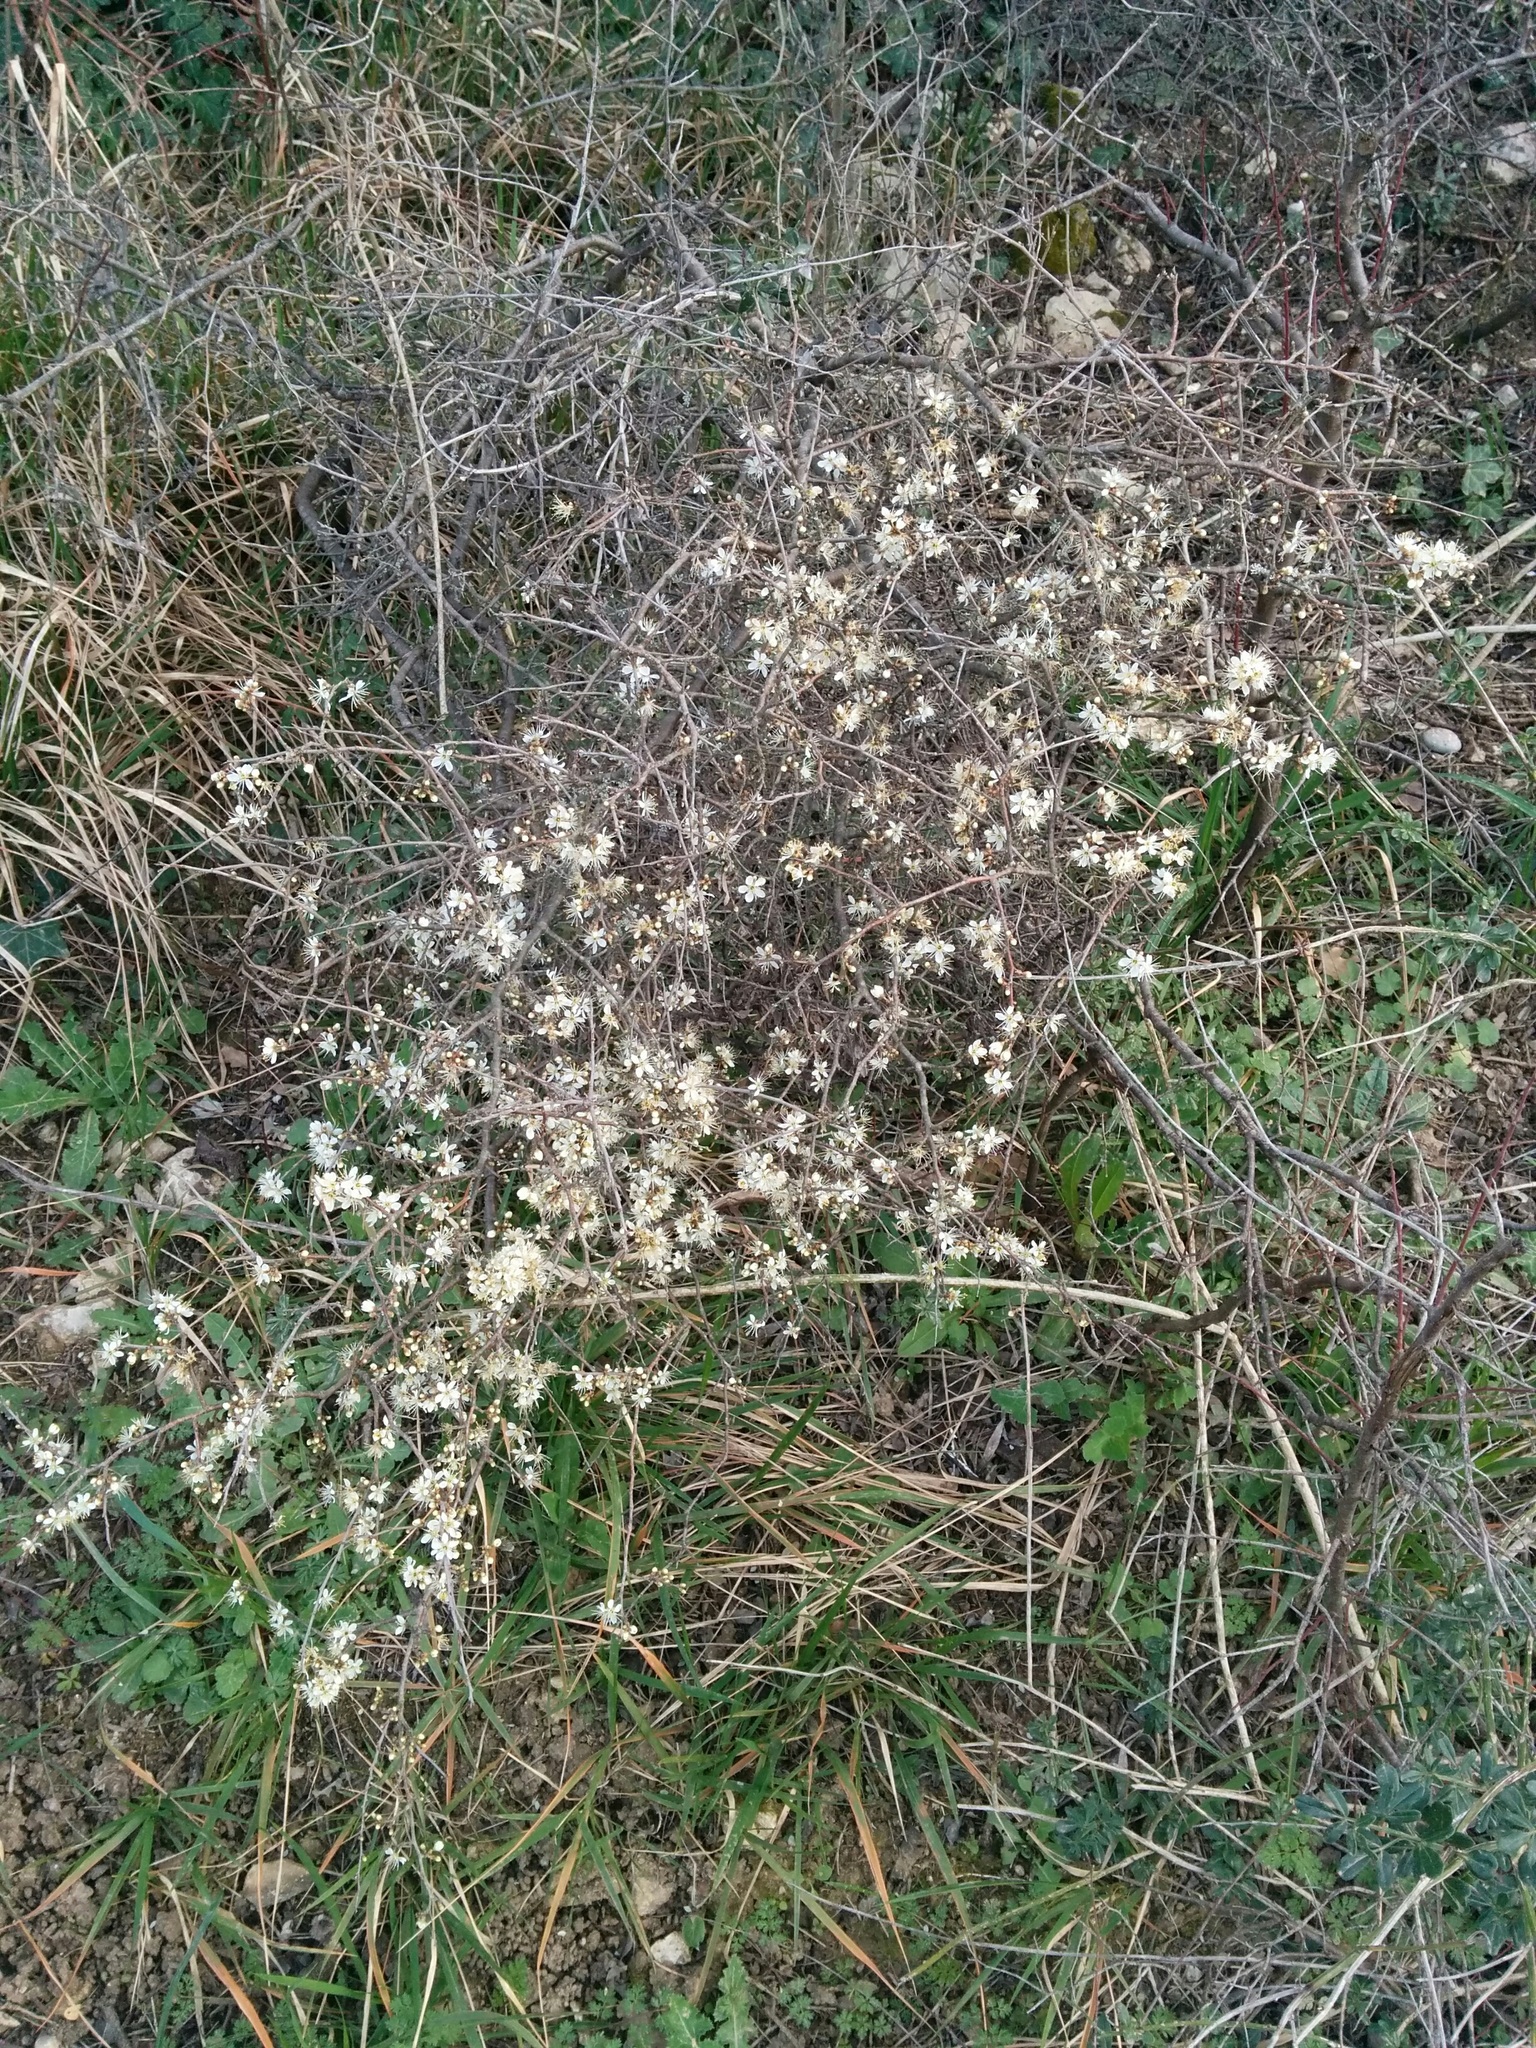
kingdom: Plantae
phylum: Tracheophyta
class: Magnoliopsida
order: Rosales
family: Rosaceae
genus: Prunus
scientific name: Prunus spinosa
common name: Blackthorn
